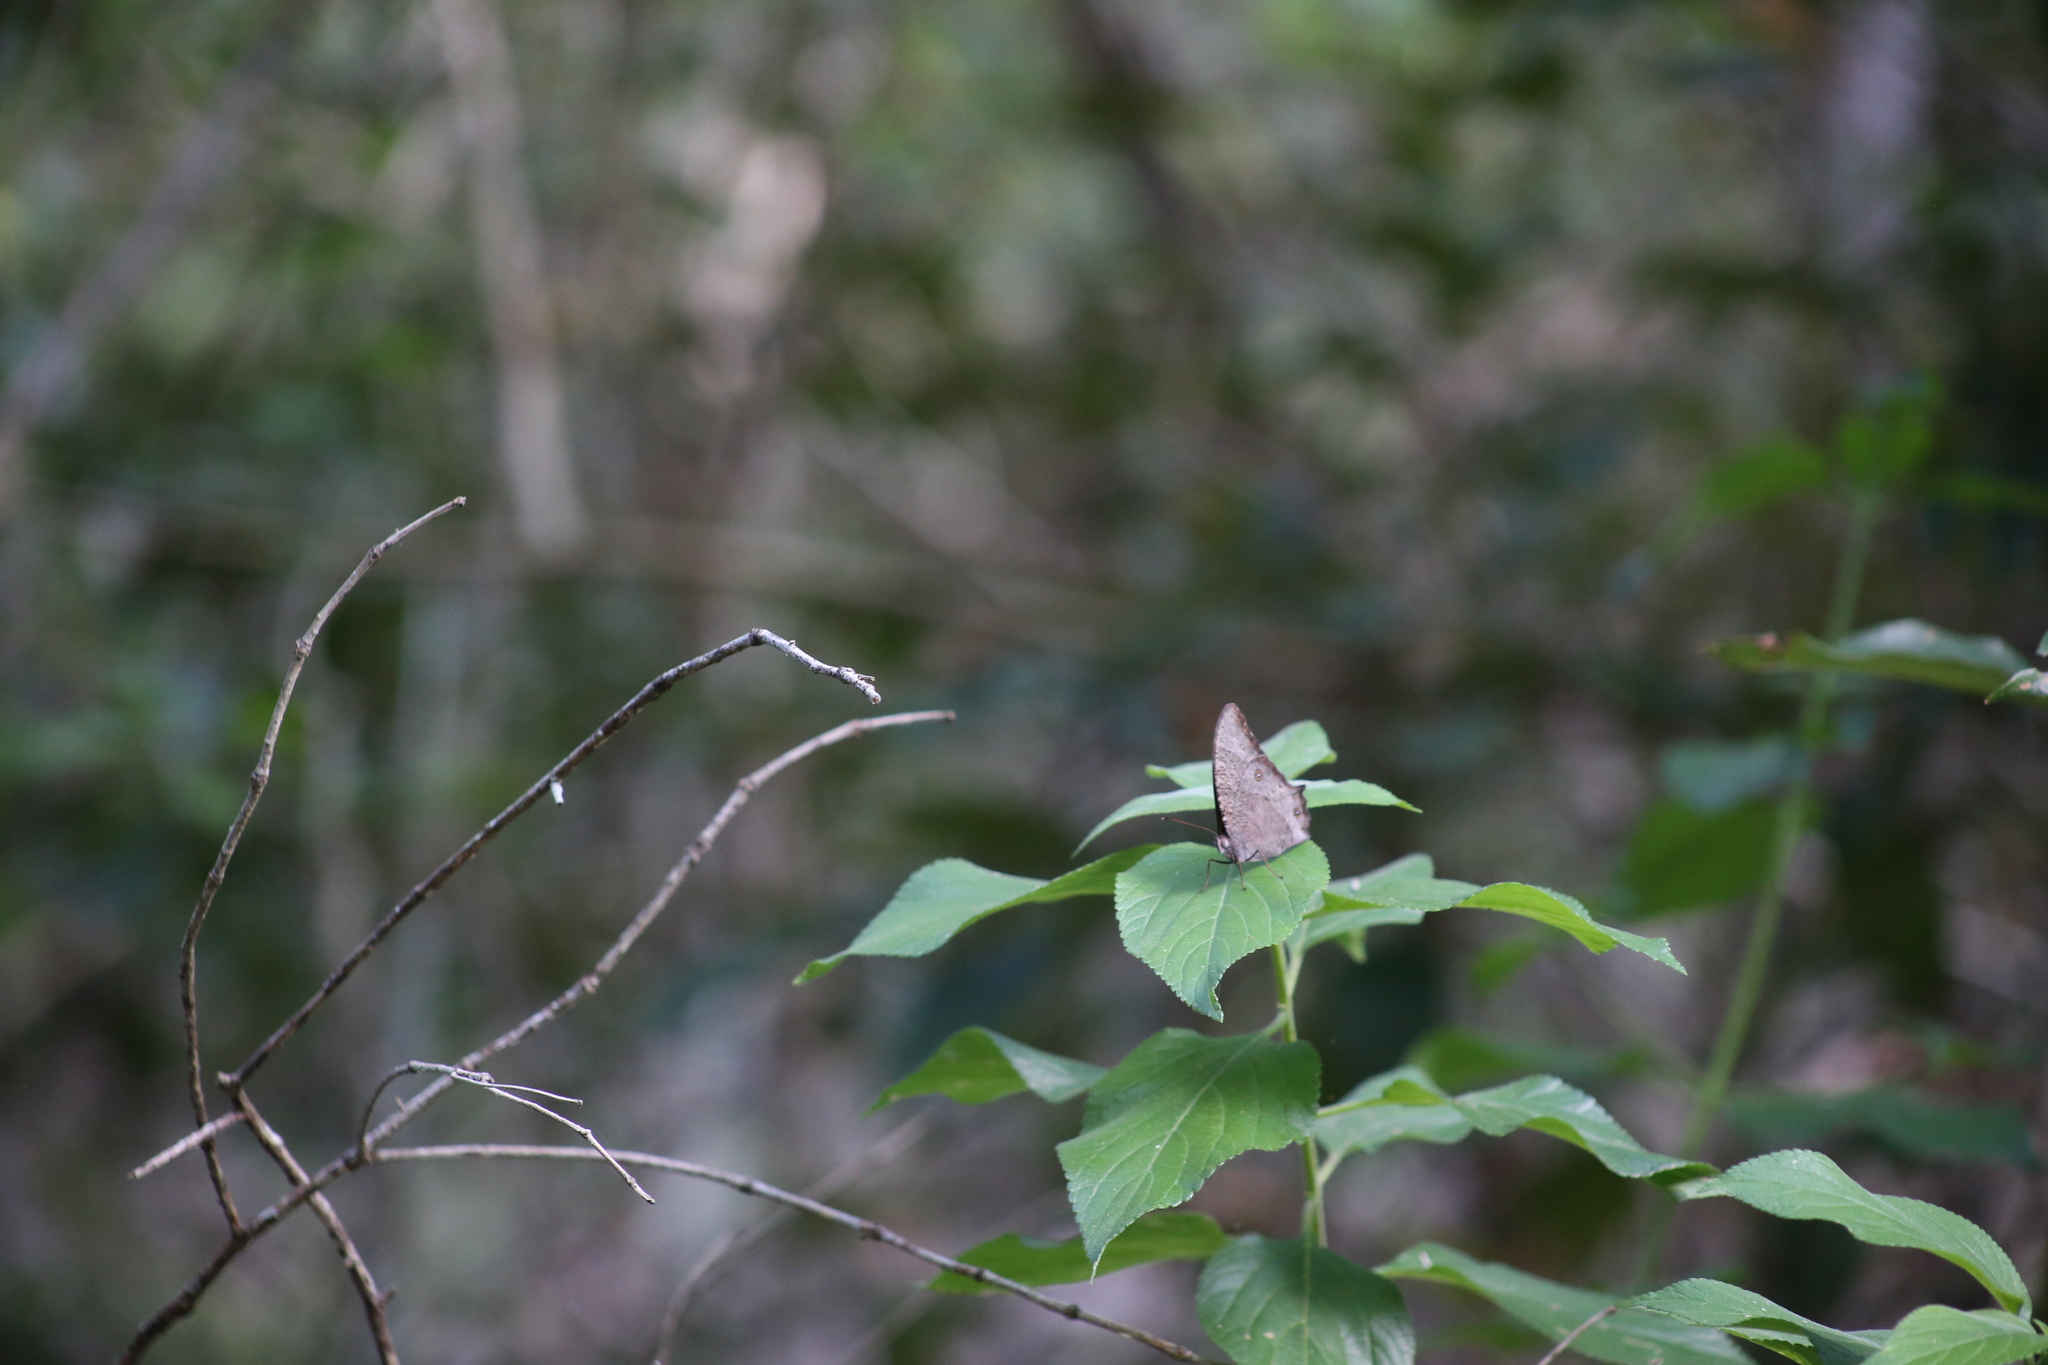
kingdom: Animalia
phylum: Arthropoda
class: Insecta
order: Lepidoptera
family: Nymphalidae
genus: Melanitis
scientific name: Melanitis leda
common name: Twilight brown
